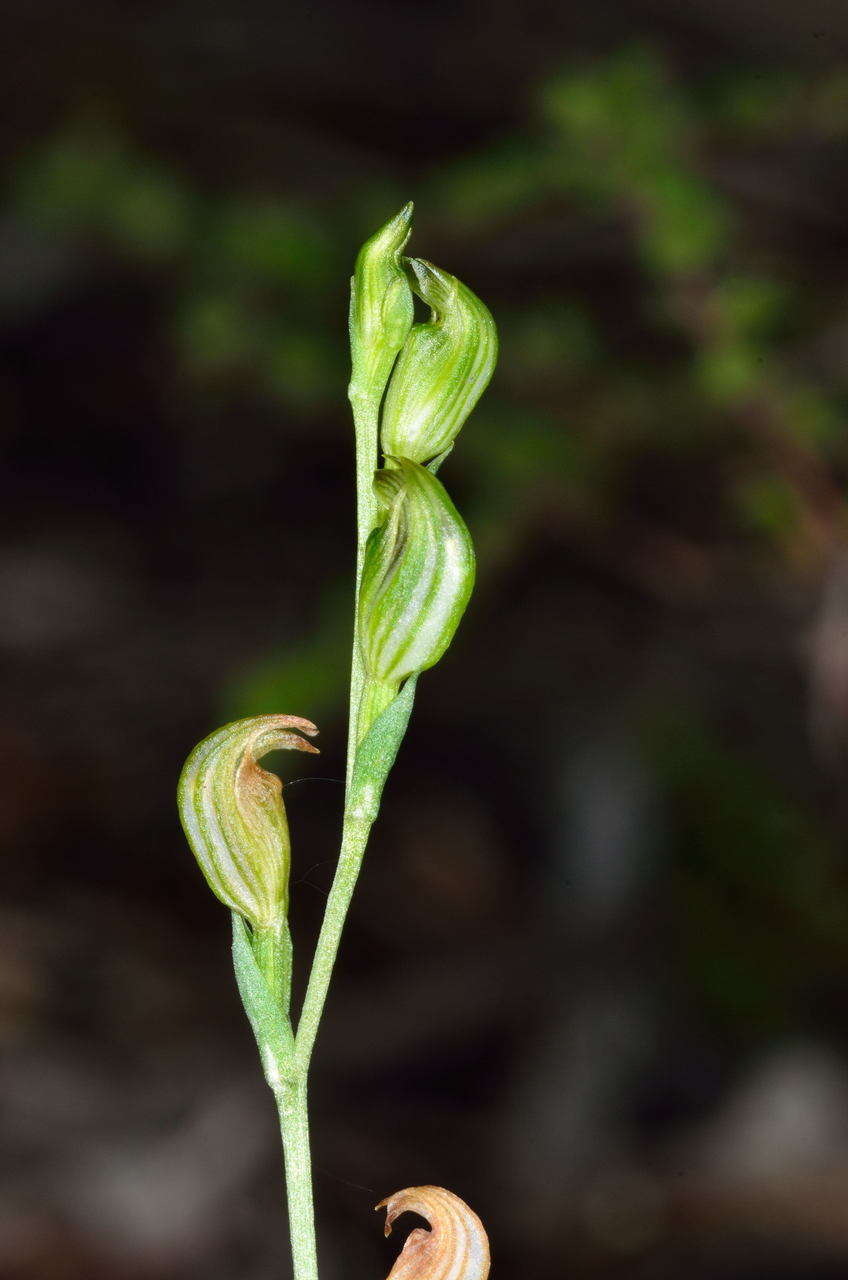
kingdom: Plantae
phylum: Tracheophyta
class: Liliopsida
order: Asparagales
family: Orchidaceae
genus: Pterostylis
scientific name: Pterostylis parviflora
